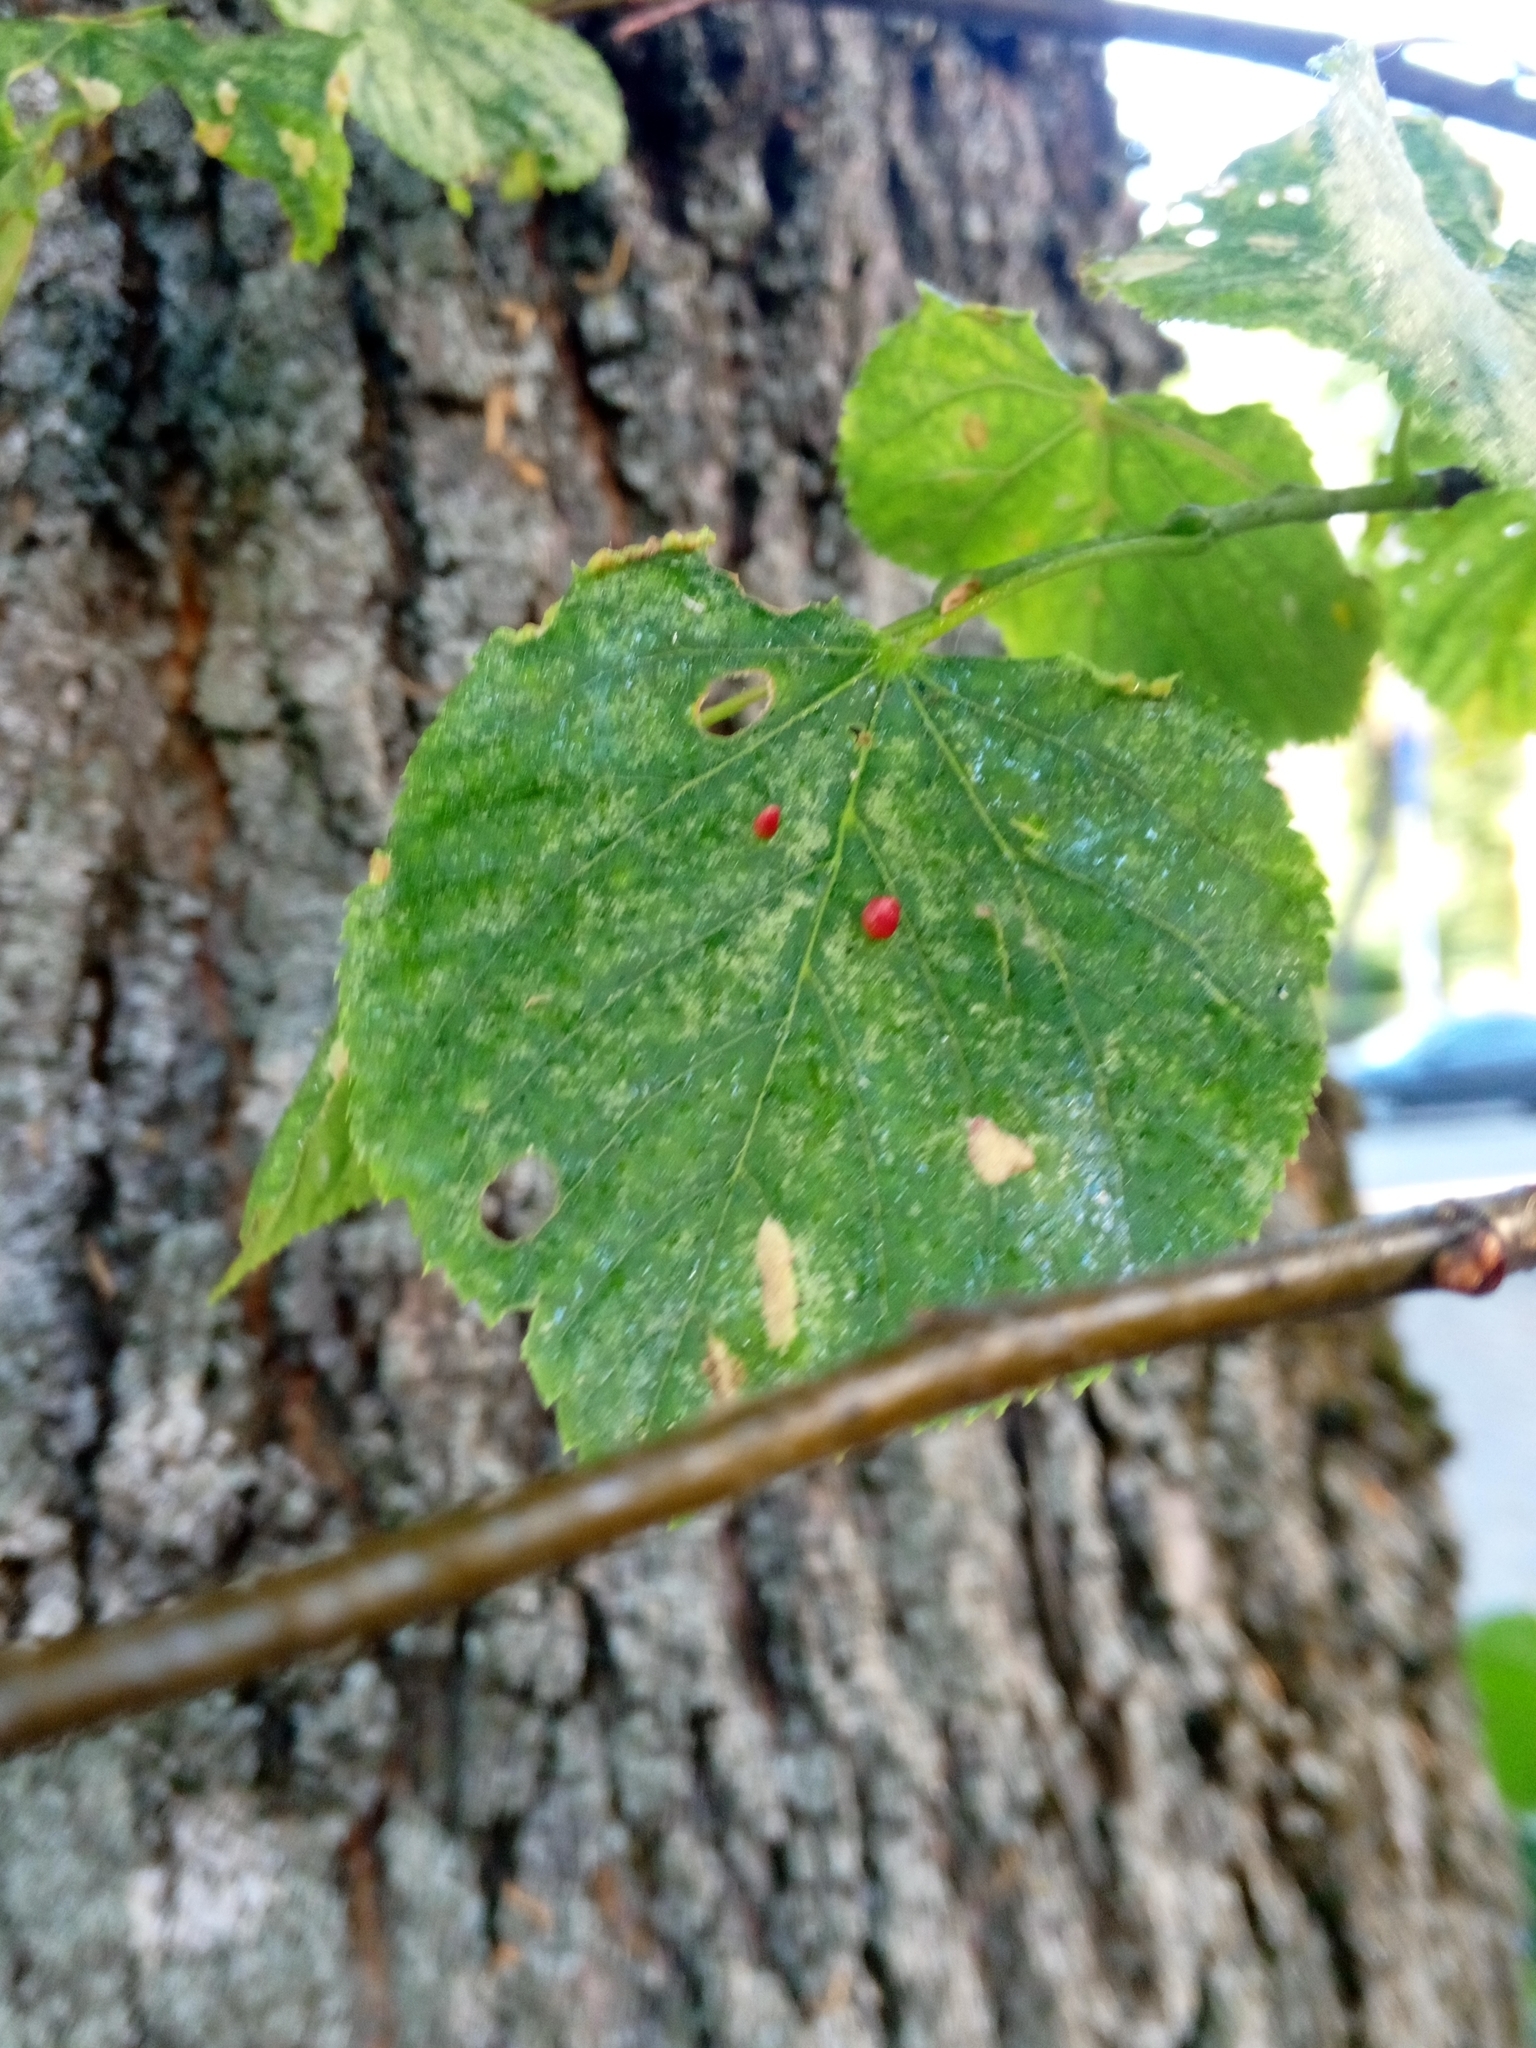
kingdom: Animalia
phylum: Arthropoda
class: Arachnida
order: Trombidiformes
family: Eriophyidae
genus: Eriophyes
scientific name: Eriophyes tiliae
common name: Red nail gall mite
